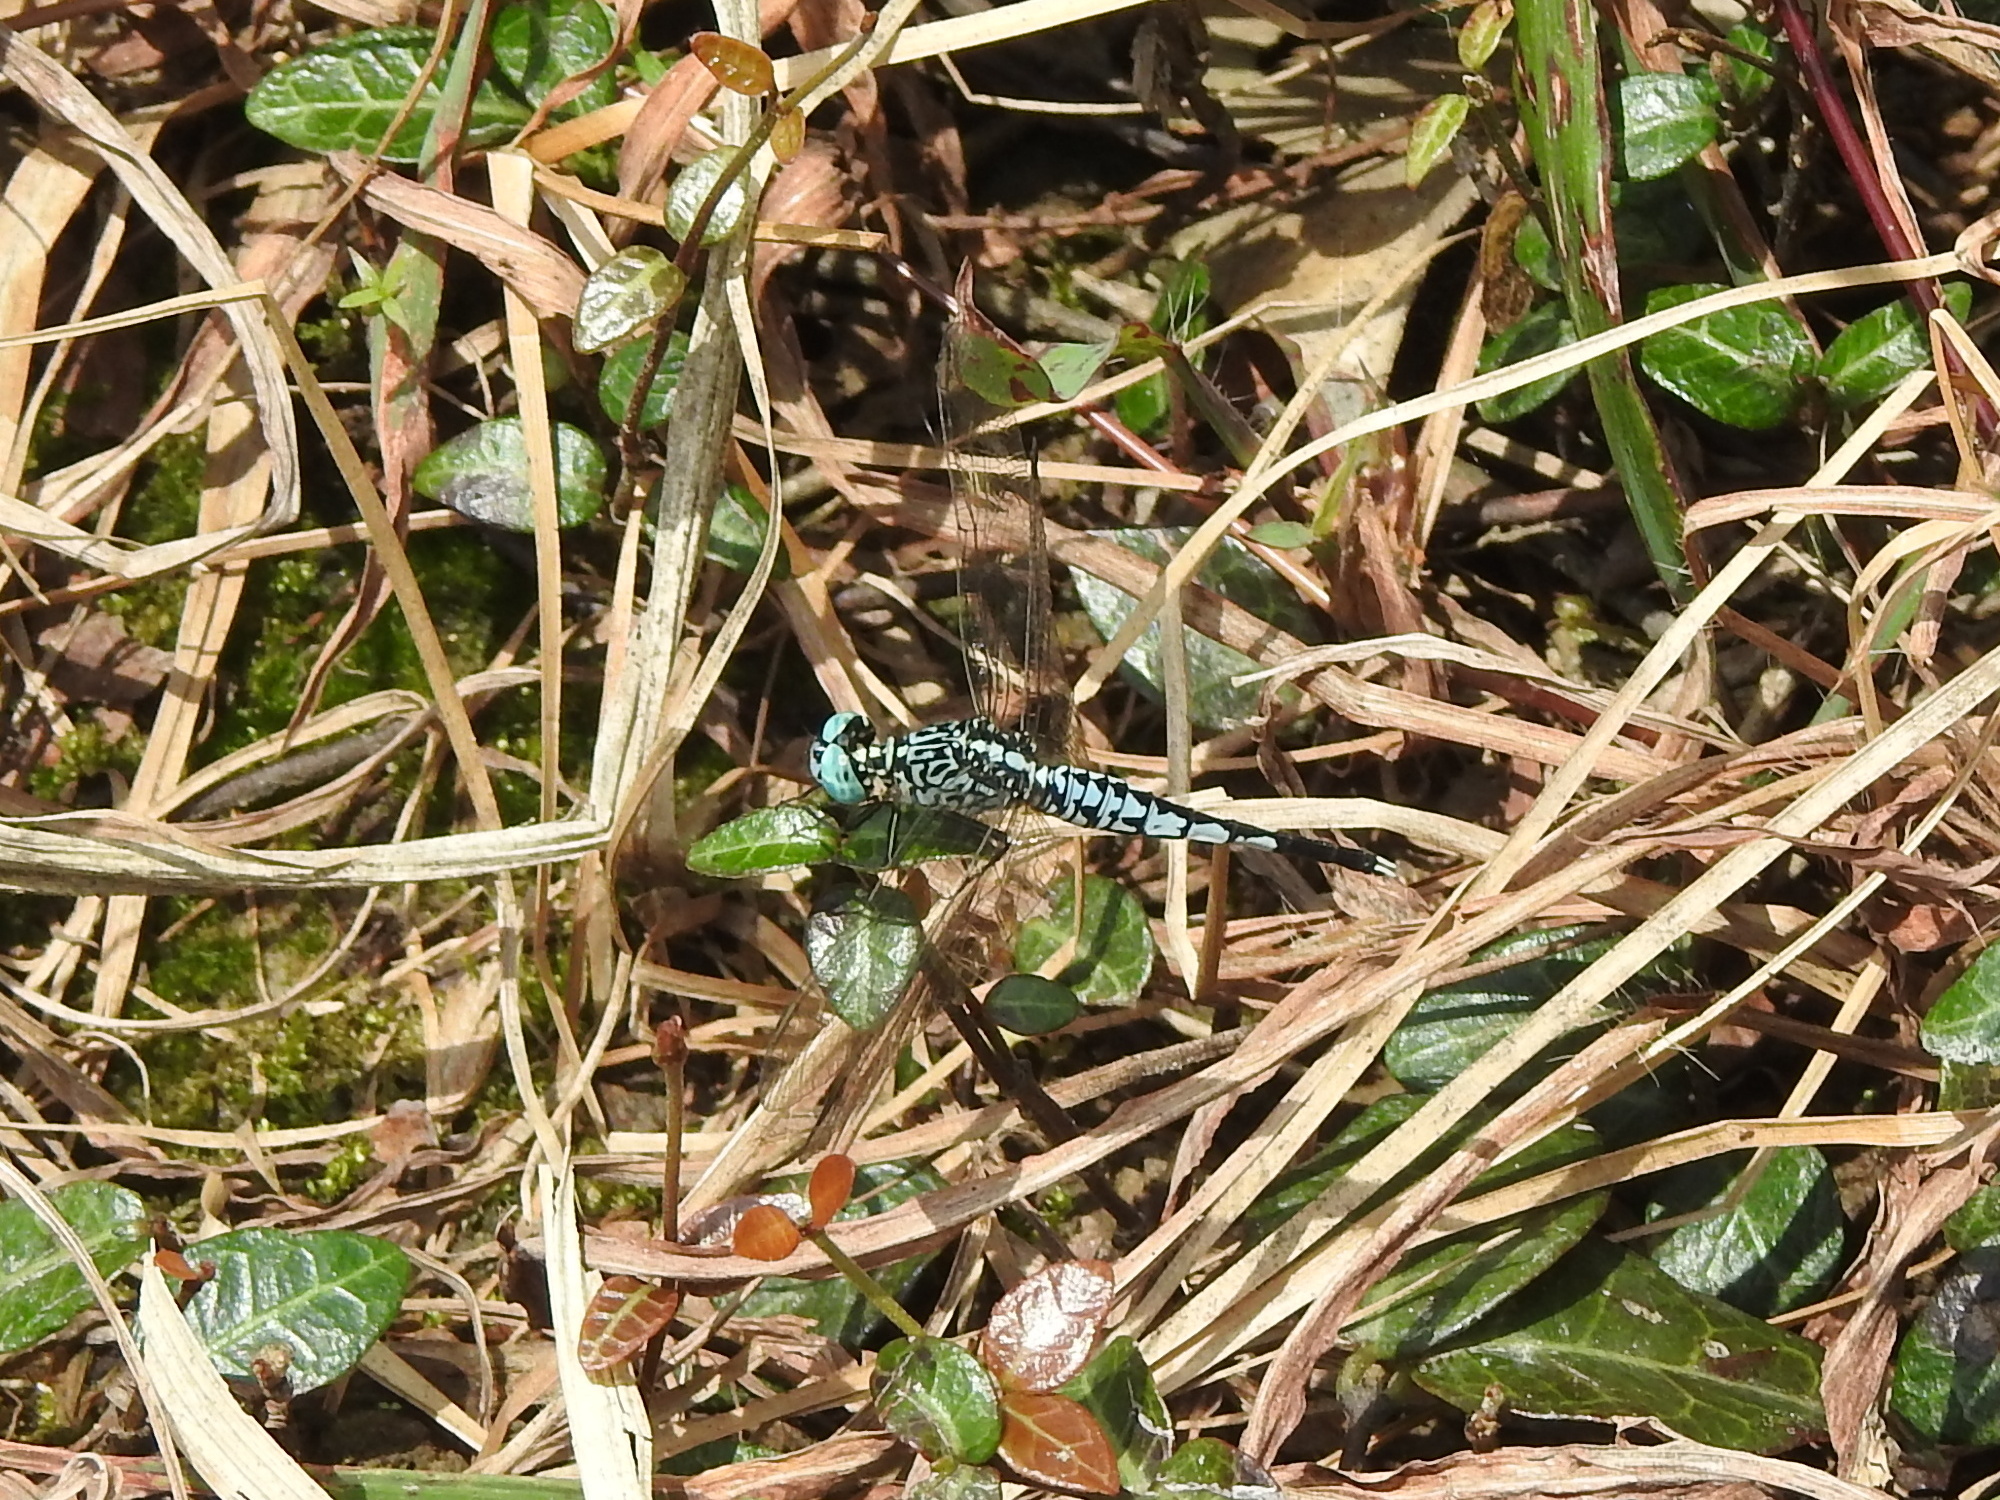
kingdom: Animalia
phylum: Arthropoda
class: Insecta
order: Odonata
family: Libellulidae
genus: Acisoma
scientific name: Acisoma panorpoides
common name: Asian pintail
